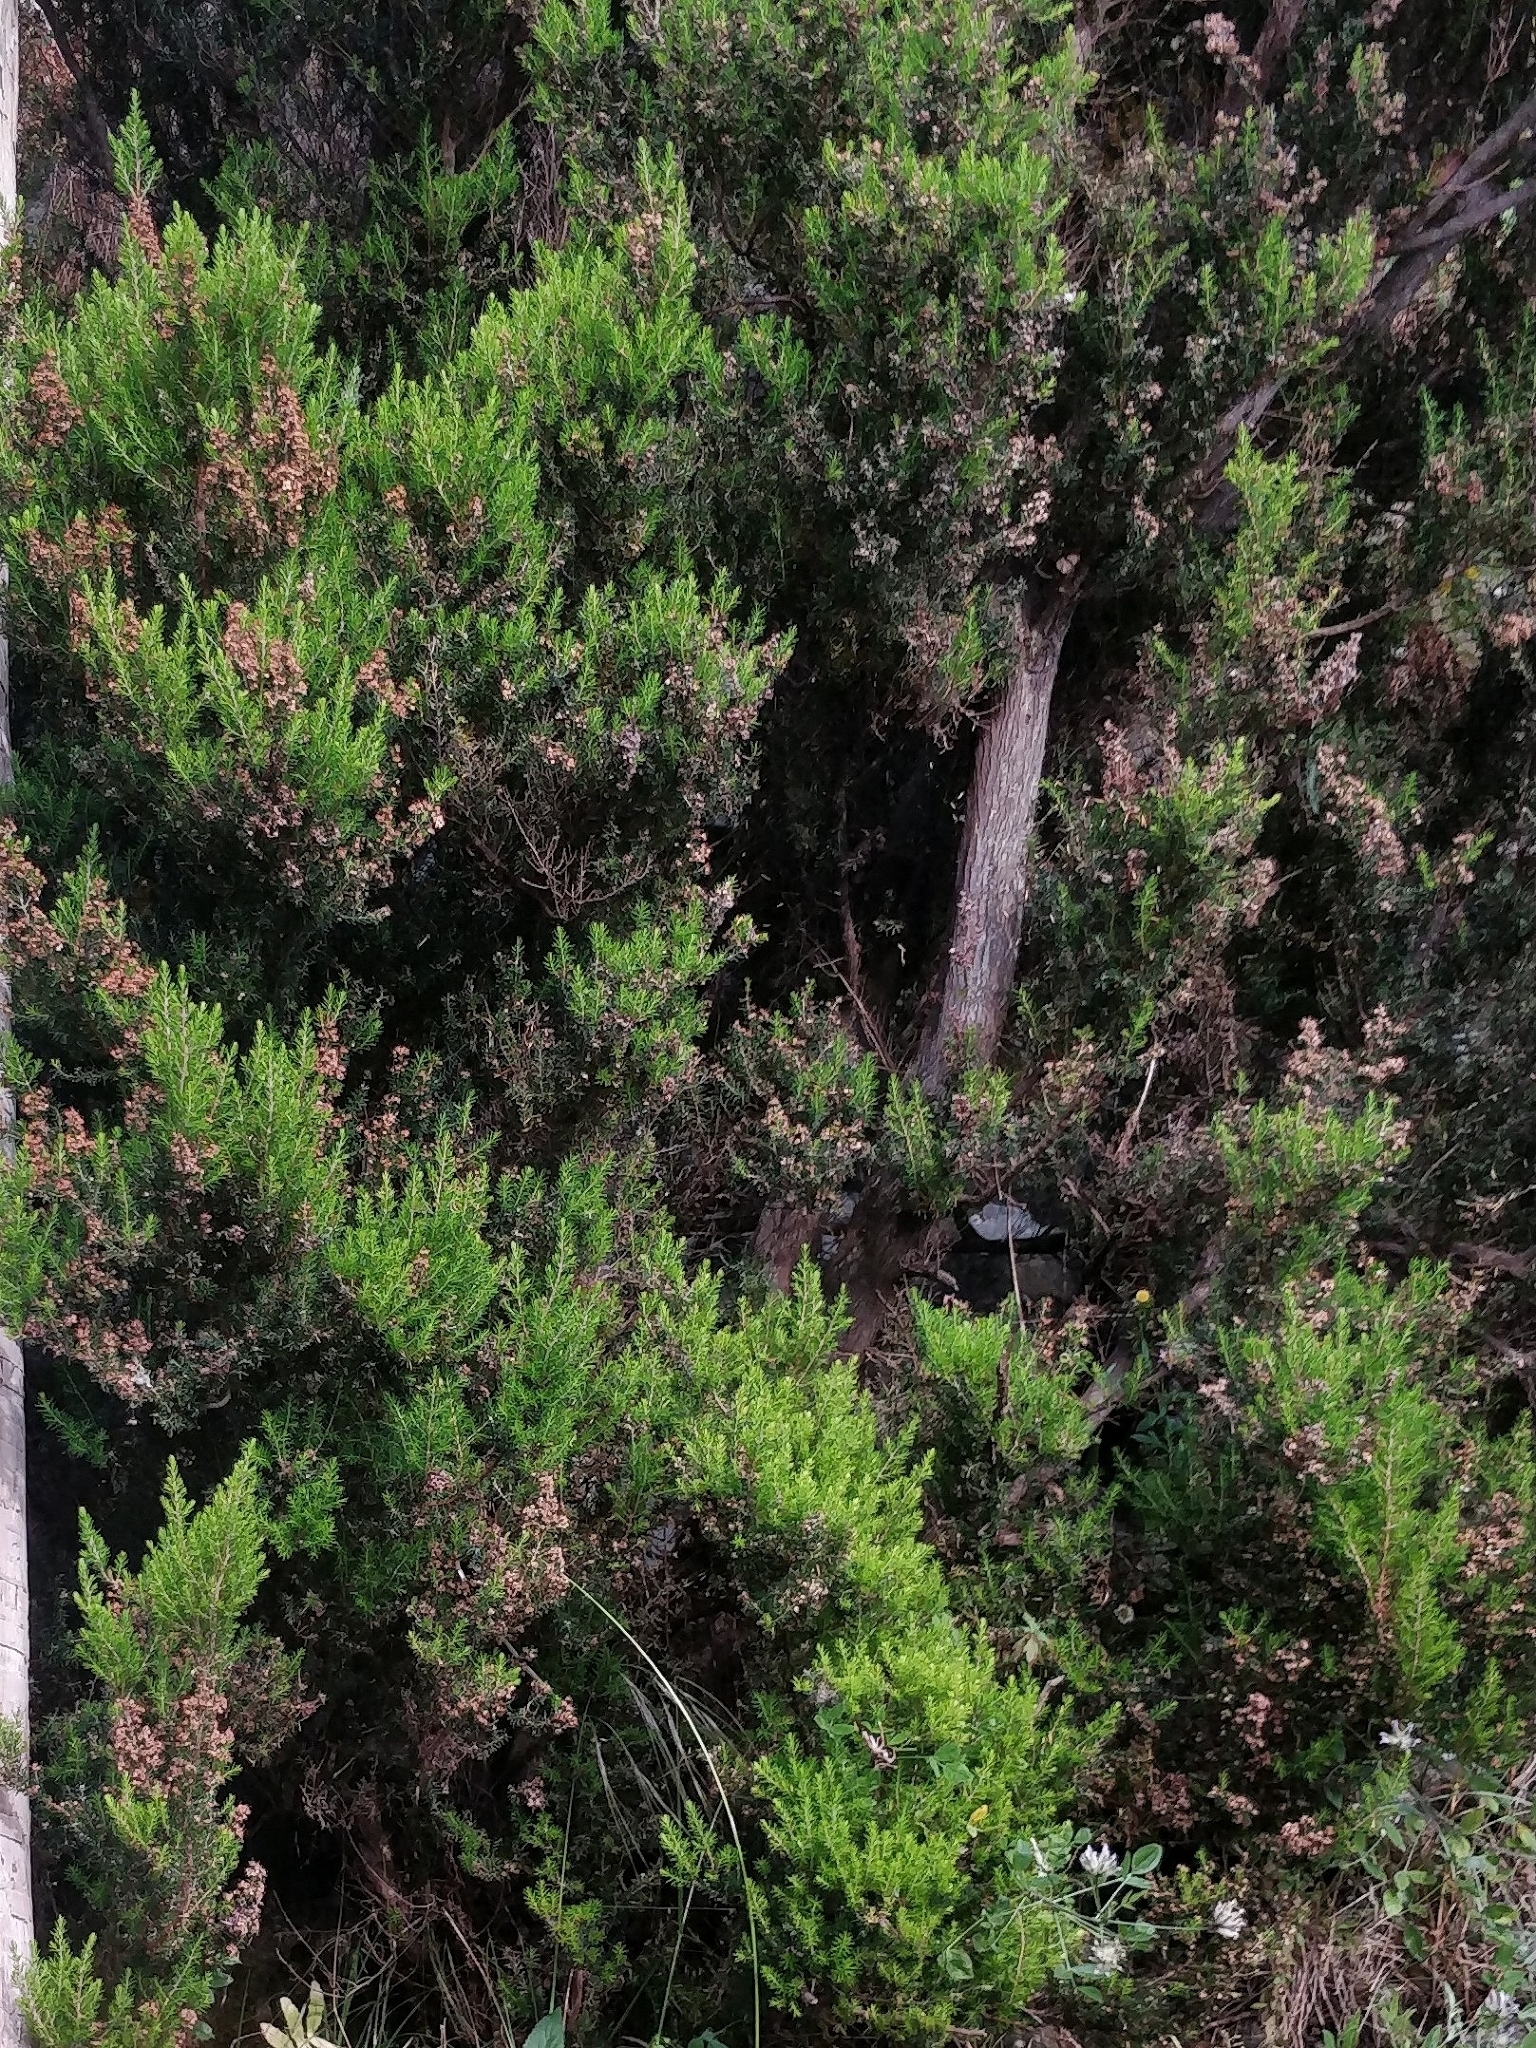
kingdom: Plantae
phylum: Tracheophyta
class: Magnoliopsida
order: Ericales
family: Ericaceae
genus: Erica
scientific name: Erica canariensis
